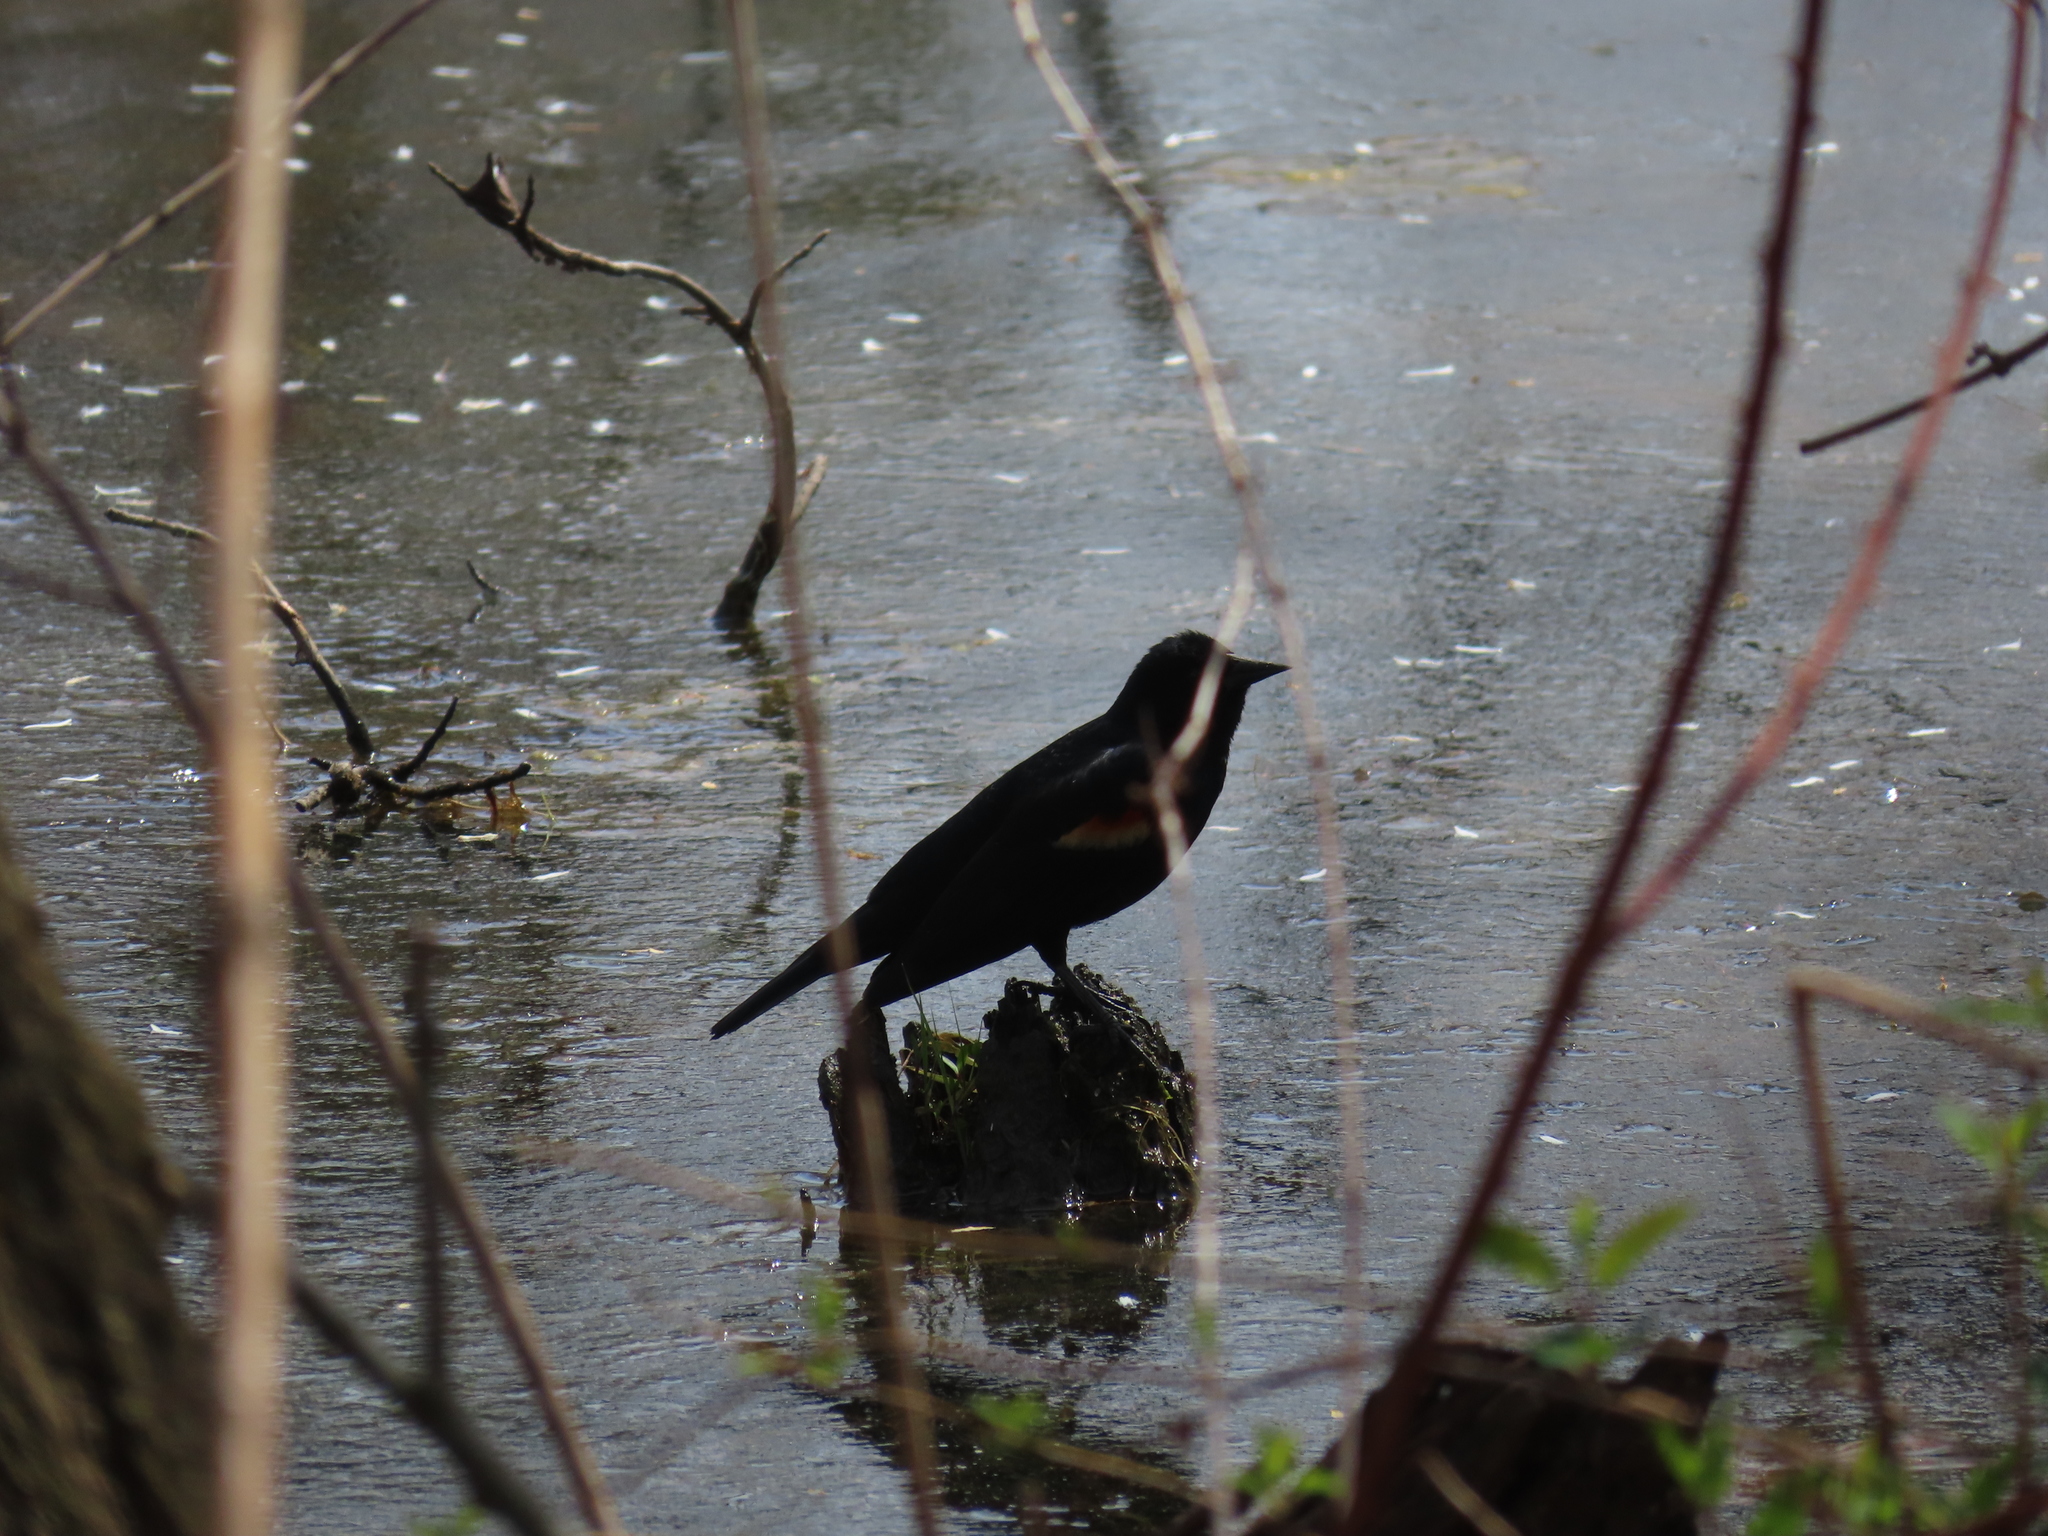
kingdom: Animalia
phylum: Chordata
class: Aves
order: Passeriformes
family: Icteridae
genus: Agelaius
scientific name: Agelaius phoeniceus
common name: Red-winged blackbird
